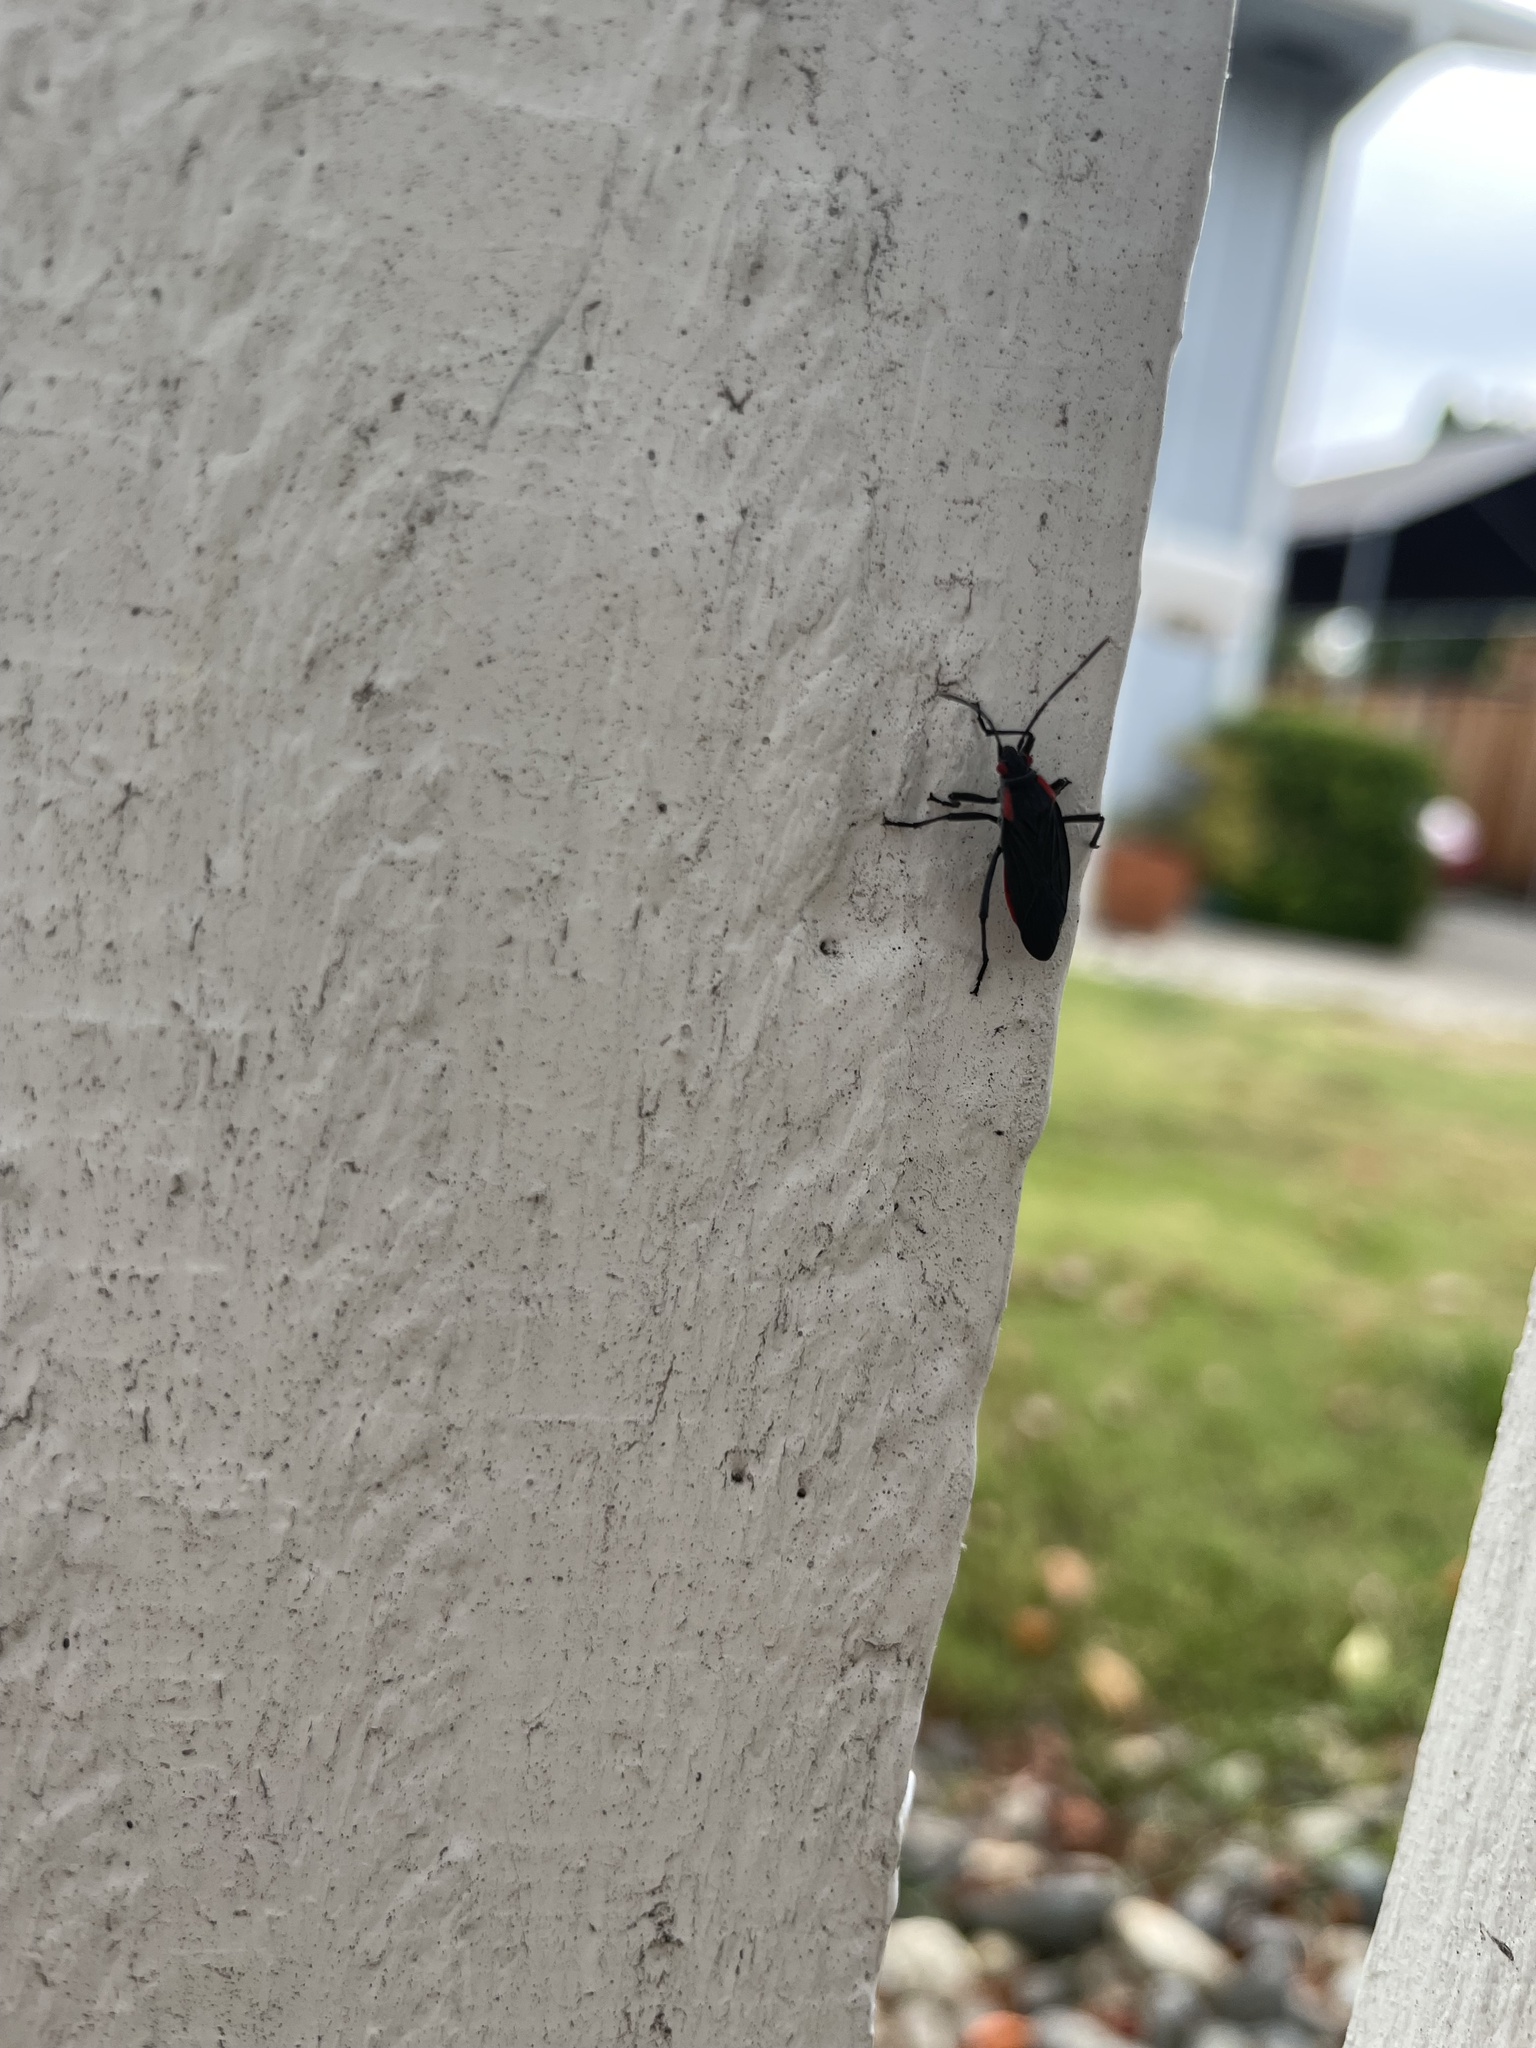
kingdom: Animalia
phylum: Arthropoda
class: Insecta
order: Hemiptera
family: Rhopalidae
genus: Jadera
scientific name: Jadera haematoloma
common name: Red-shouldered bug
